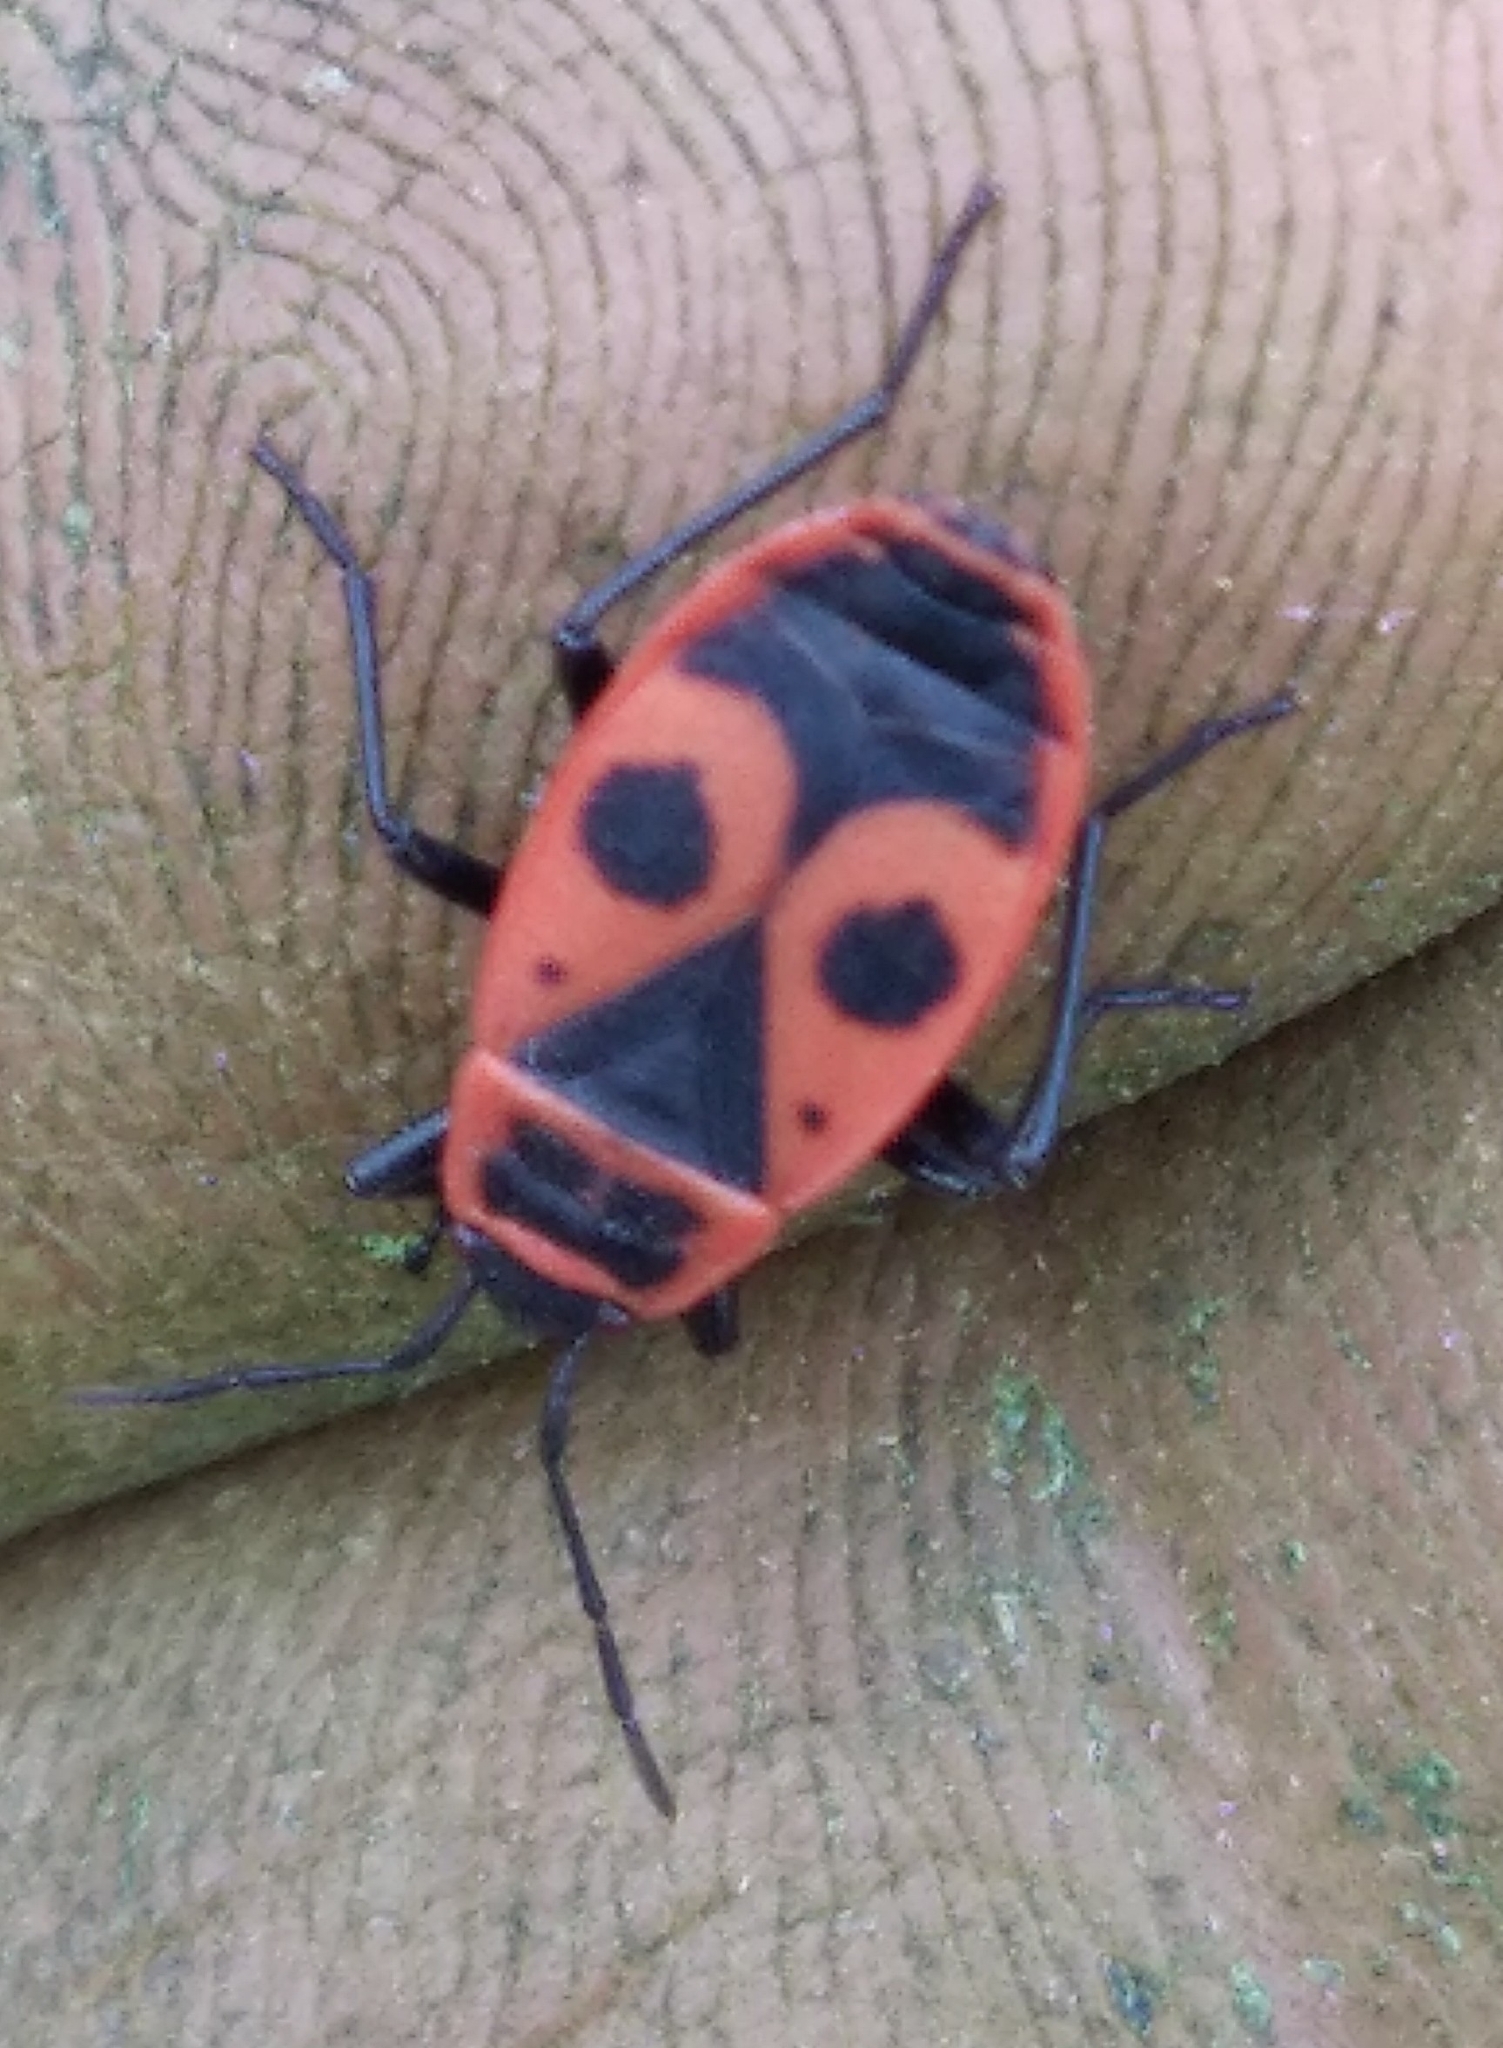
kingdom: Animalia
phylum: Arthropoda
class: Insecta
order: Hemiptera
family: Pyrrhocoridae
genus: Pyrrhocoris
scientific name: Pyrrhocoris apterus
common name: Firebug
